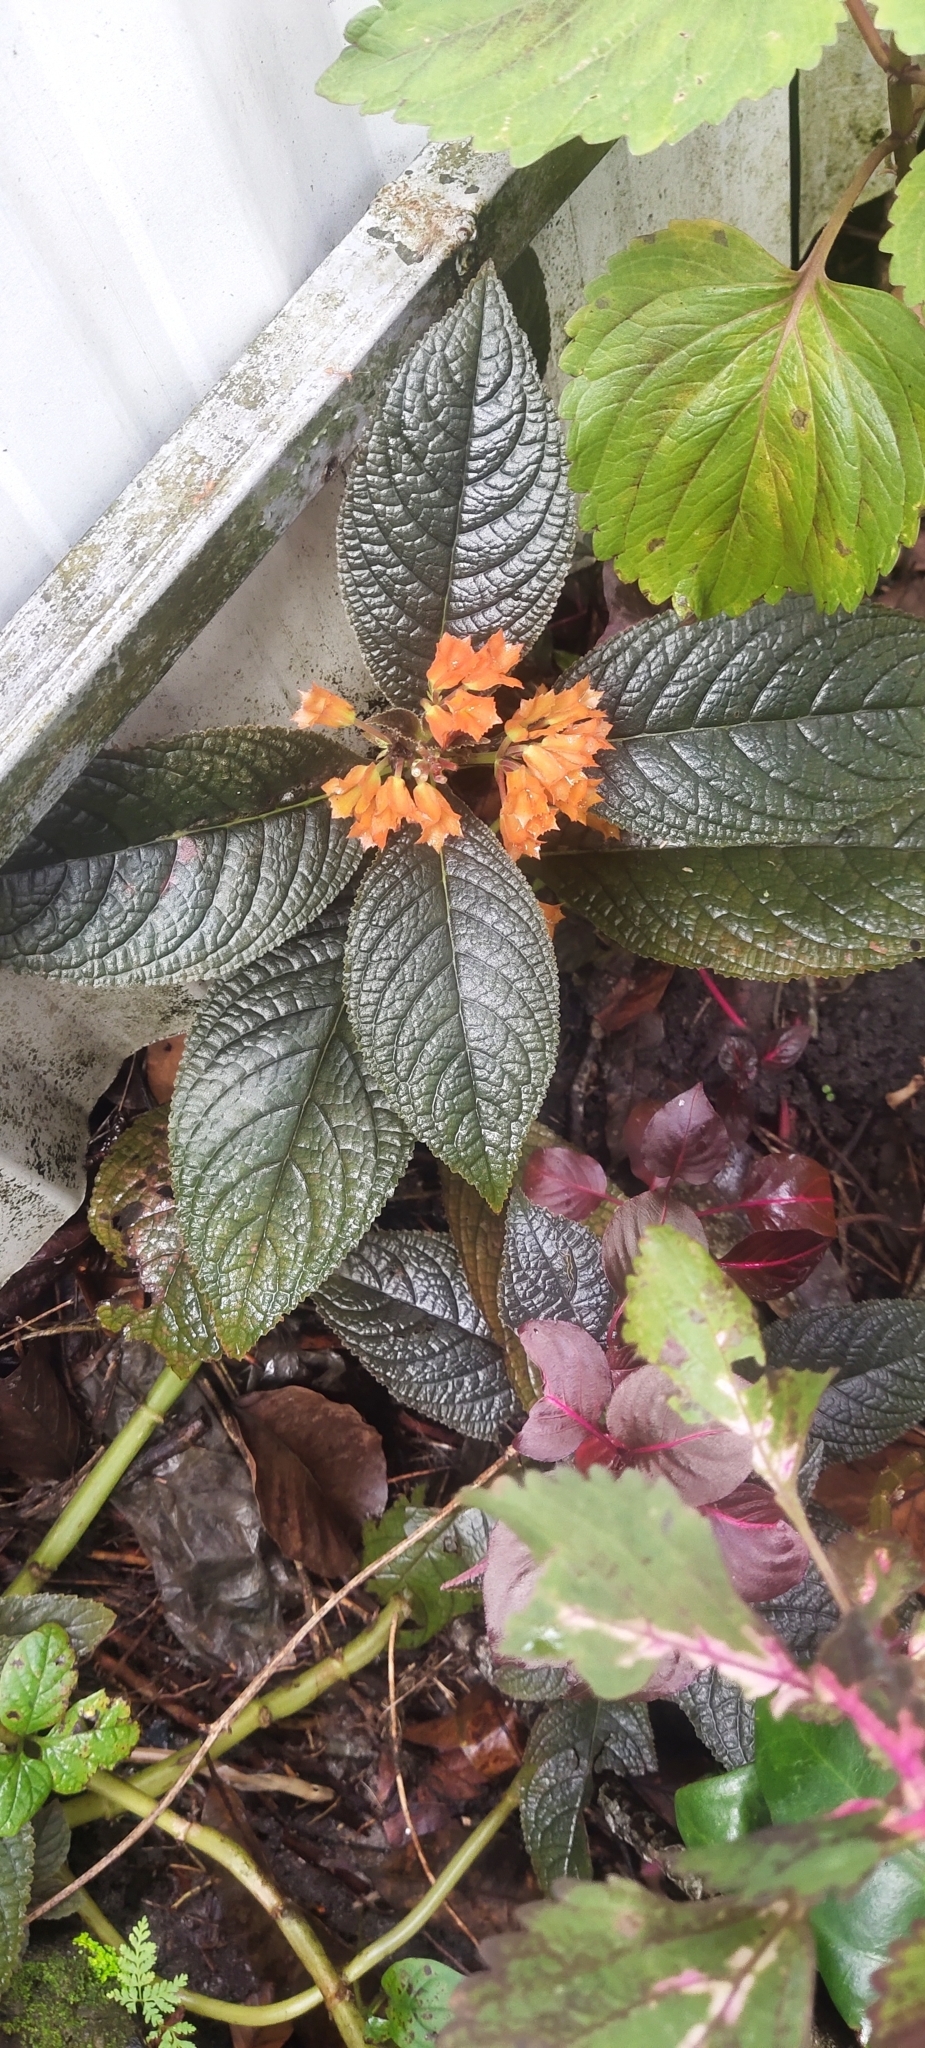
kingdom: Plantae
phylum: Tracheophyta
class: Magnoliopsida
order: Lamiales
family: Gesneriaceae
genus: Chrysothemis
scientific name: Chrysothemis pulchella
